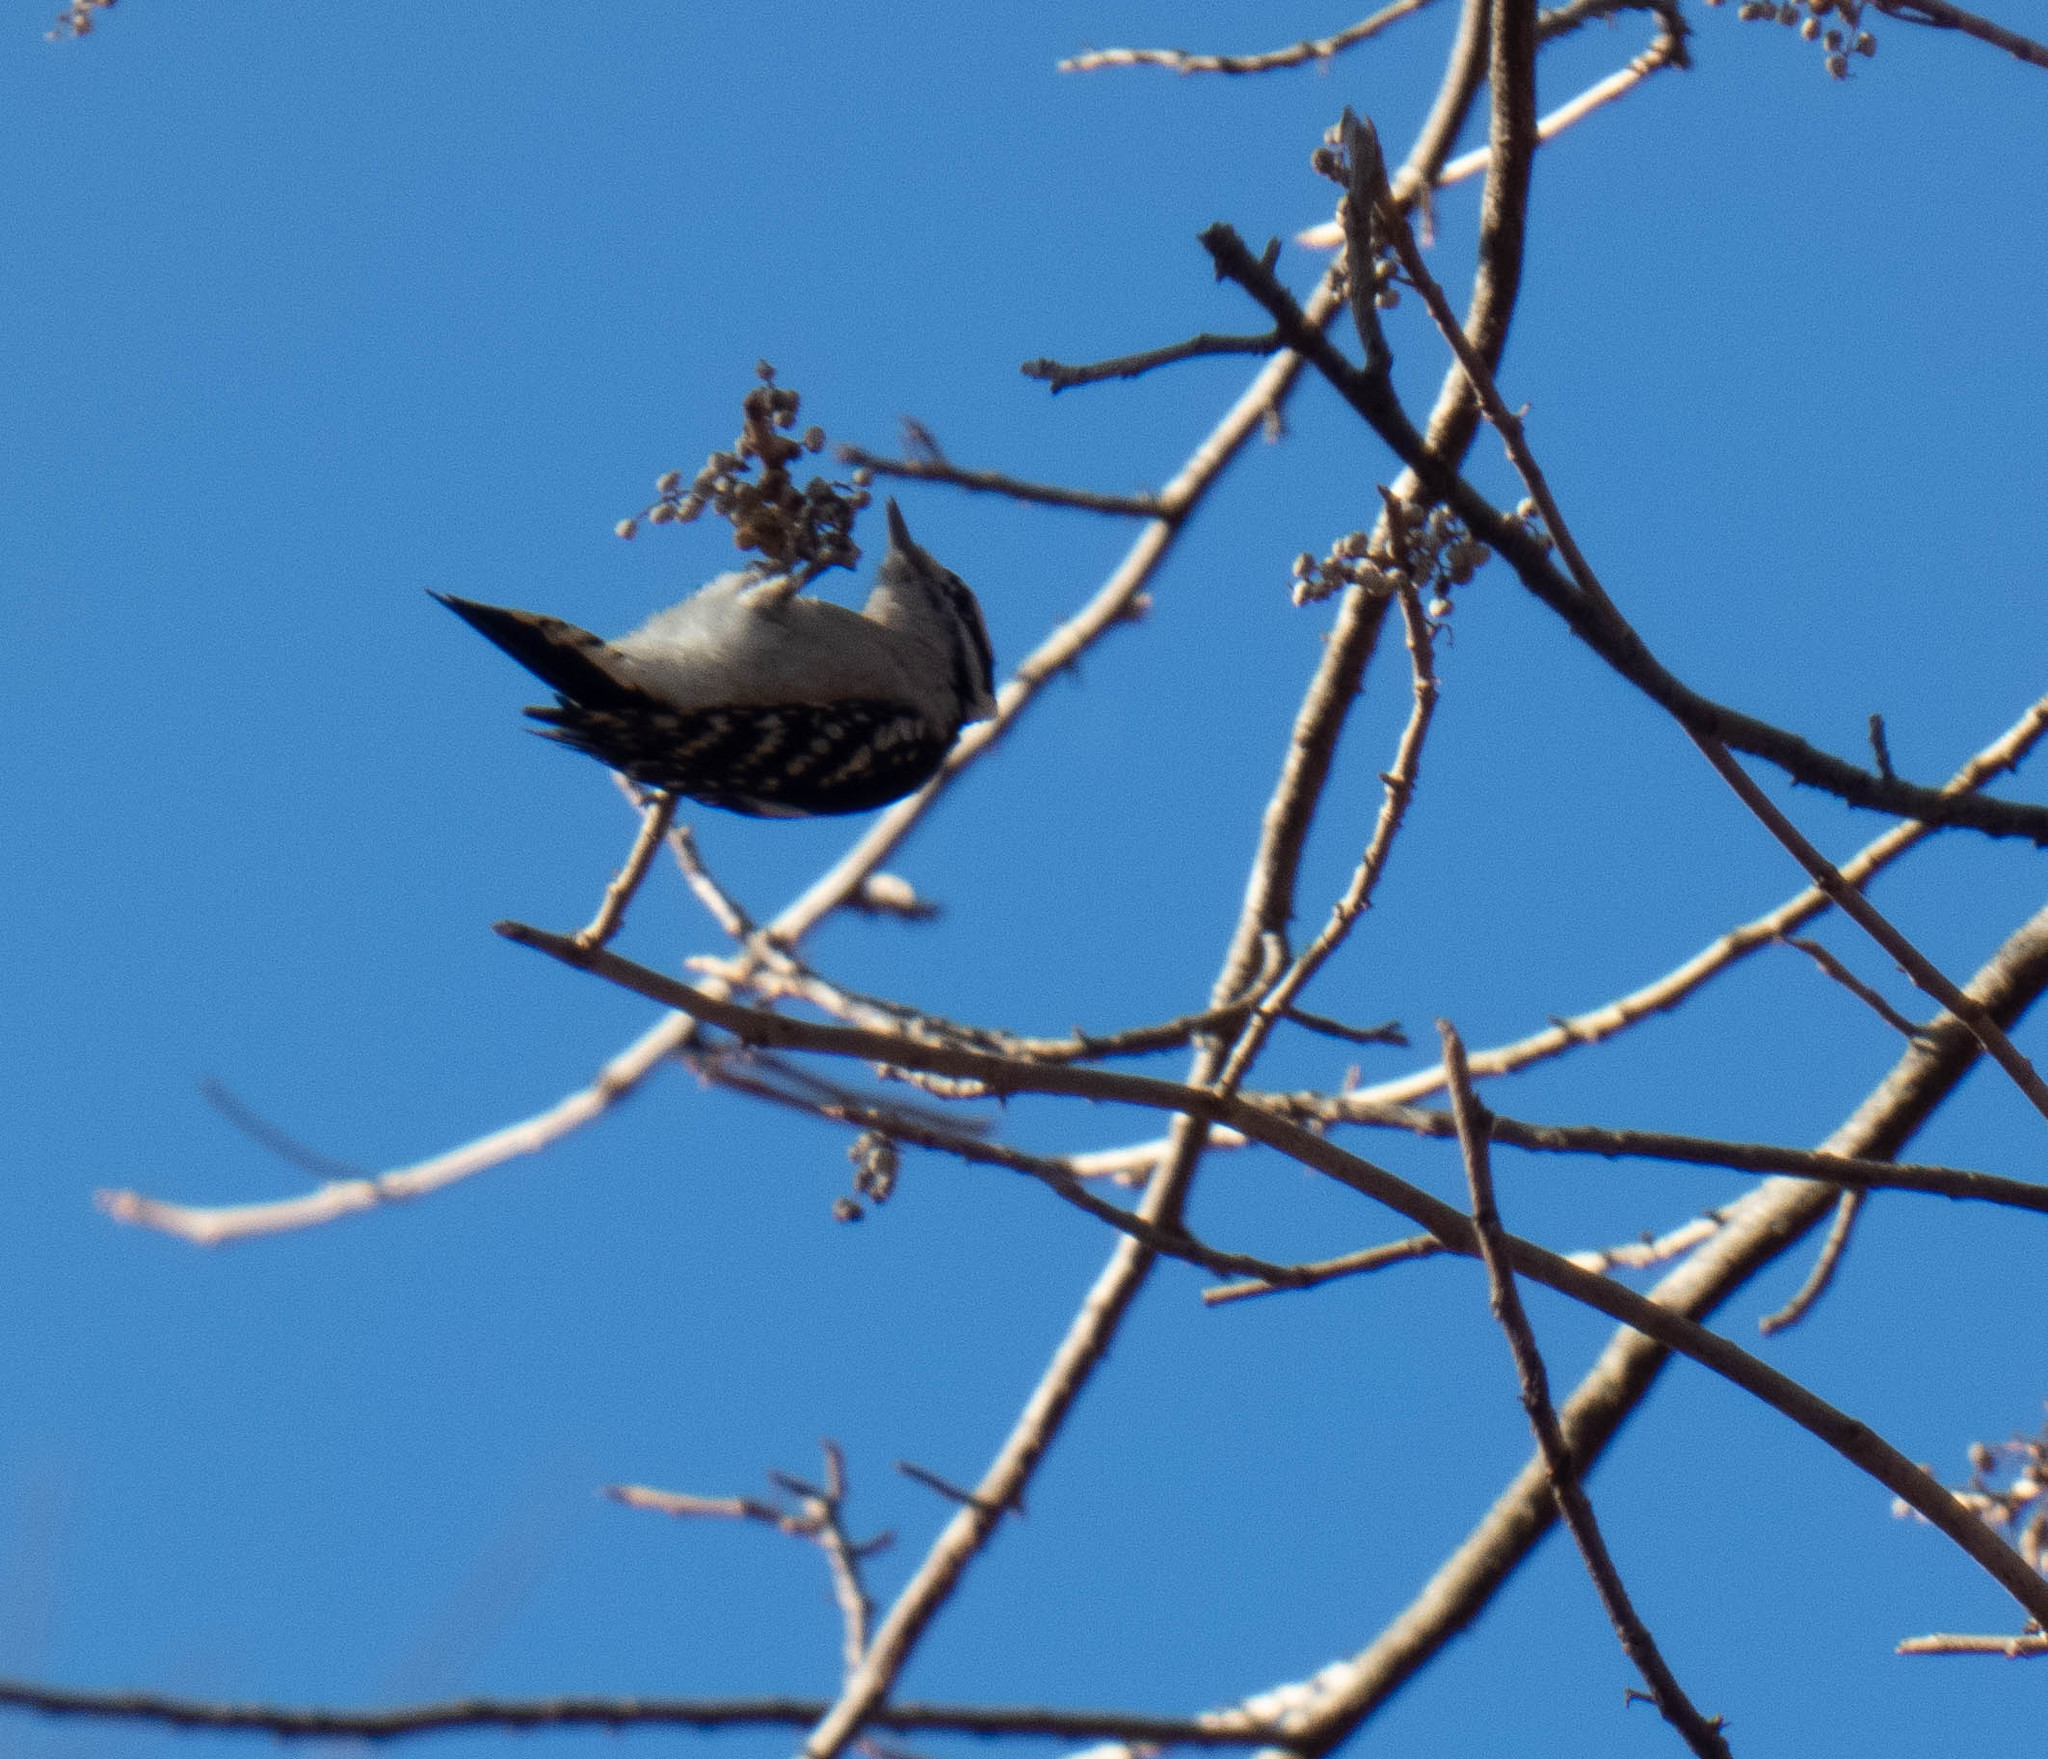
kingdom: Animalia
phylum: Chordata
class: Aves
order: Piciformes
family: Picidae
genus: Dryobates
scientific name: Dryobates pubescens
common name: Downy woodpecker
